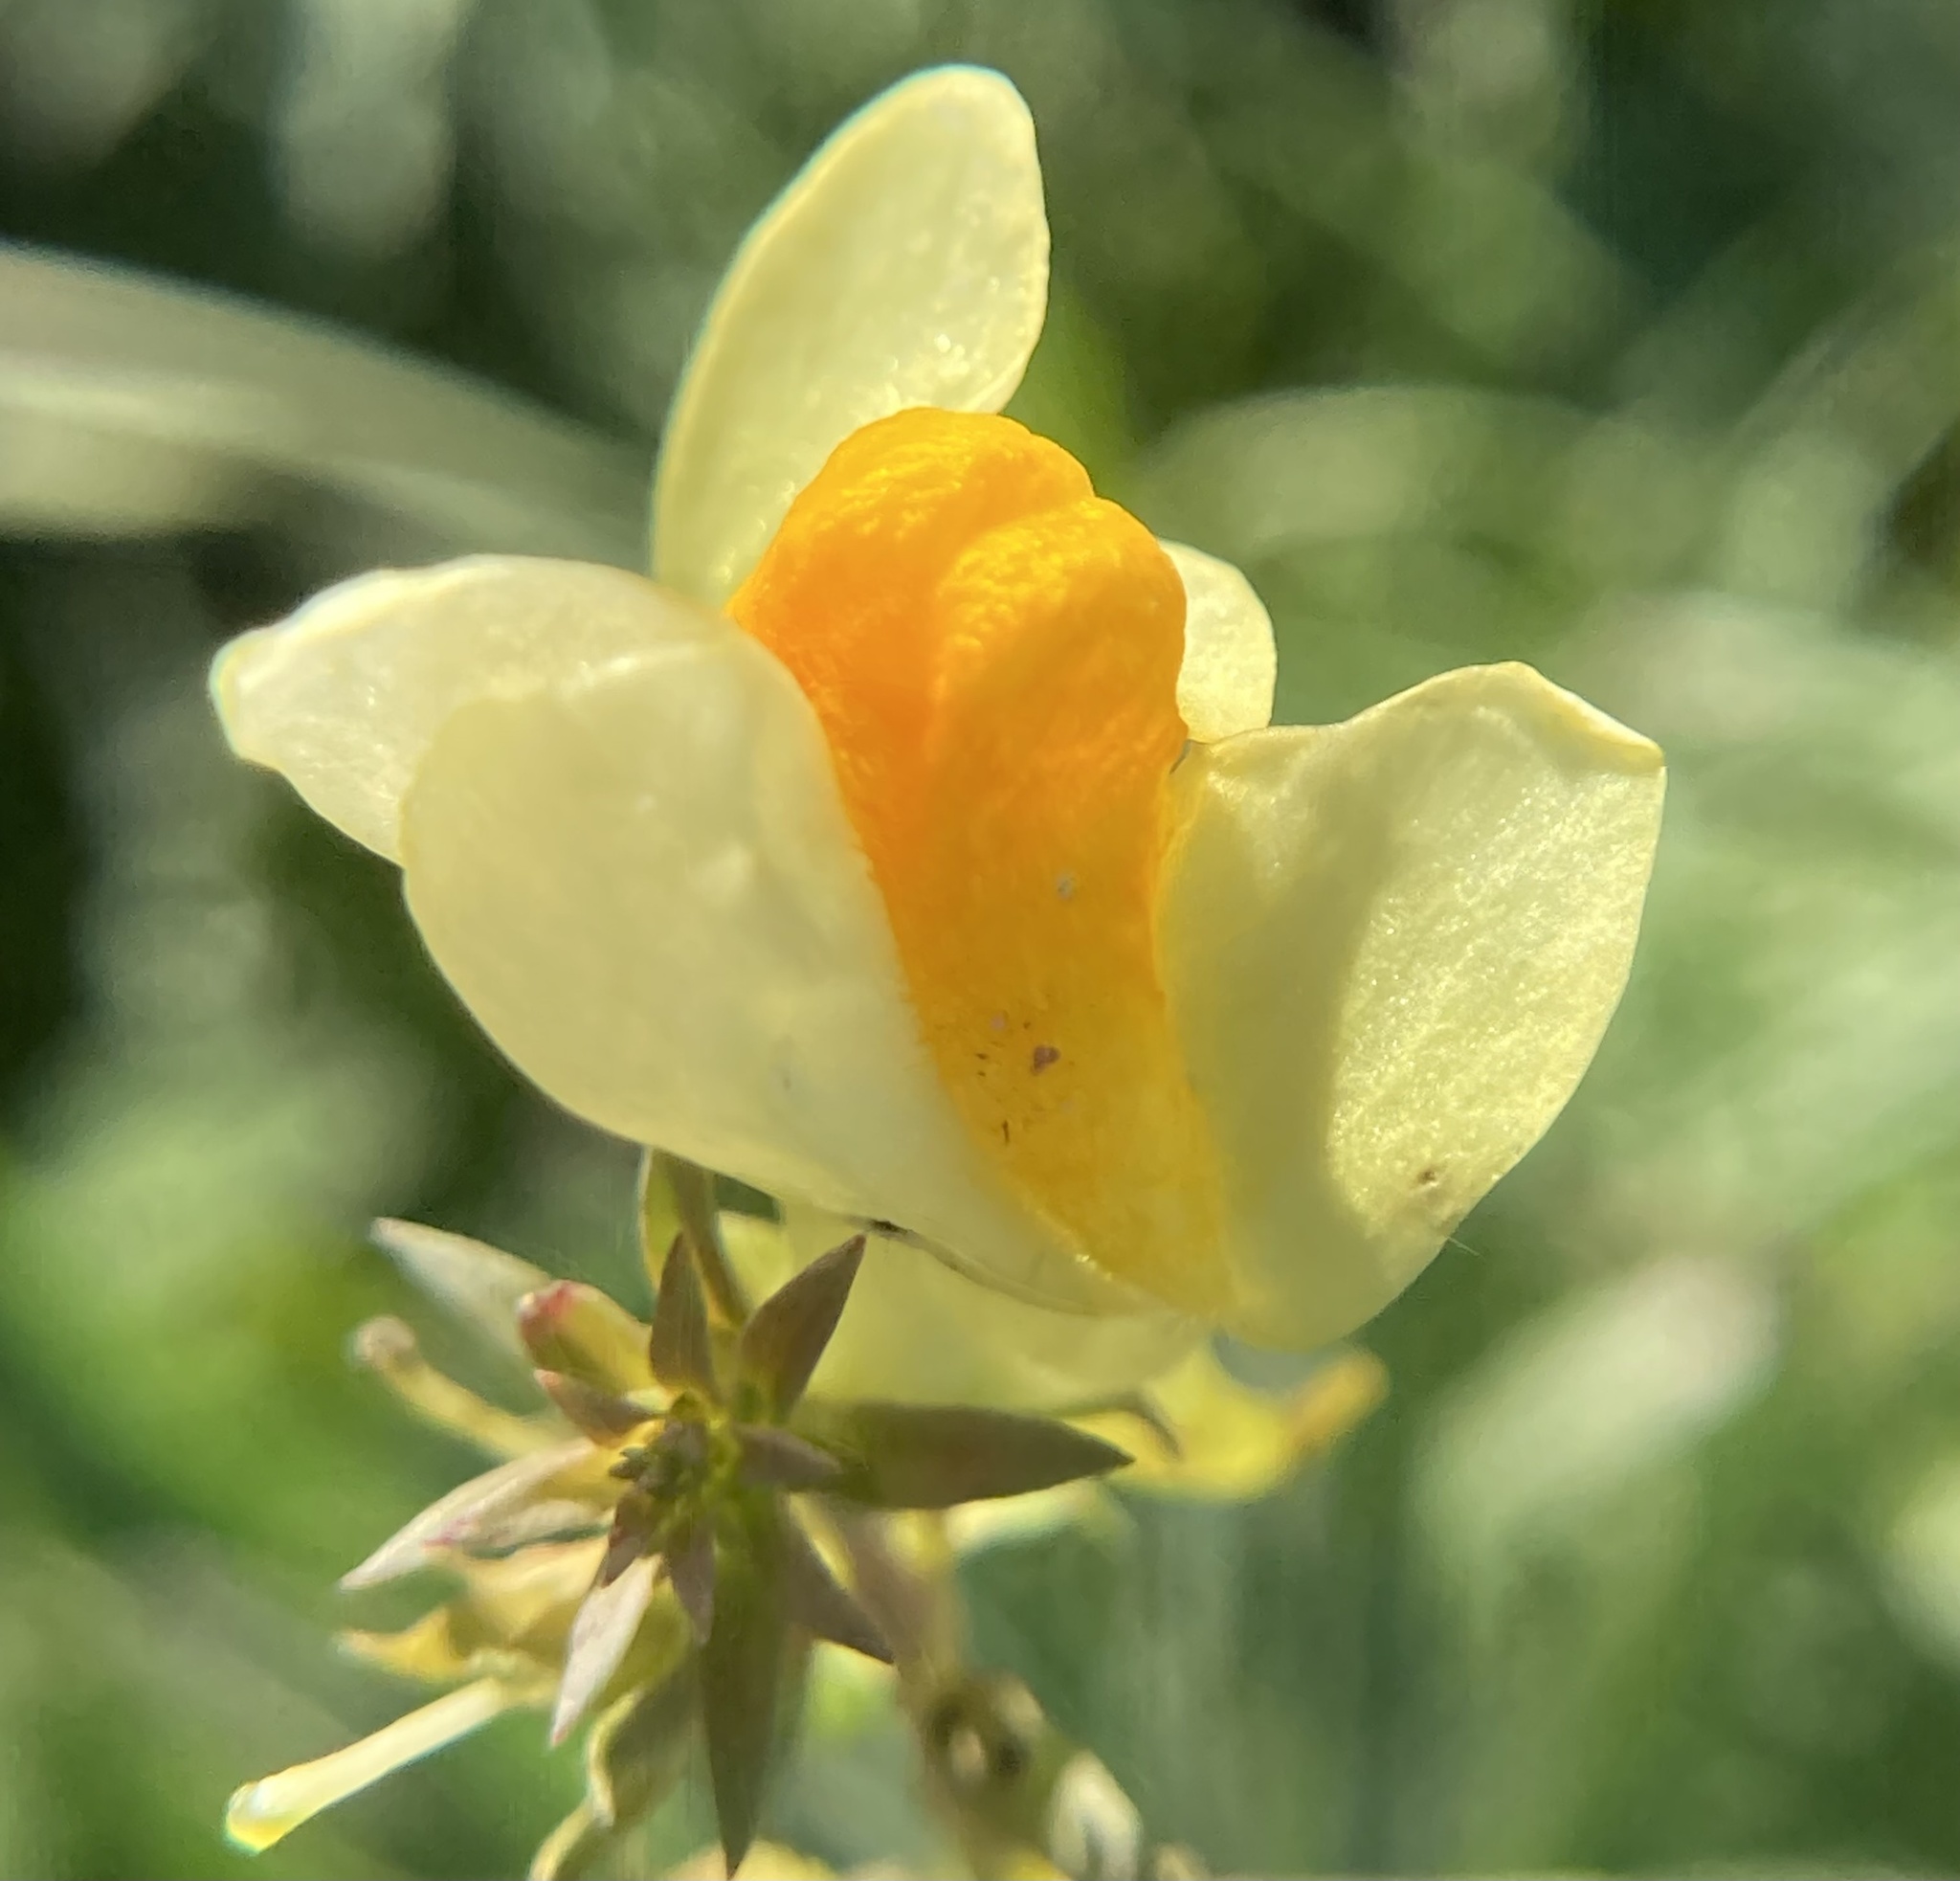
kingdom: Plantae
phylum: Tracheophyta
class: Magnoliopsida
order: Lamiales
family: Plantaginaceae
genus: Linaria
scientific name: Linaria vulgaris
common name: Butter and eggs
